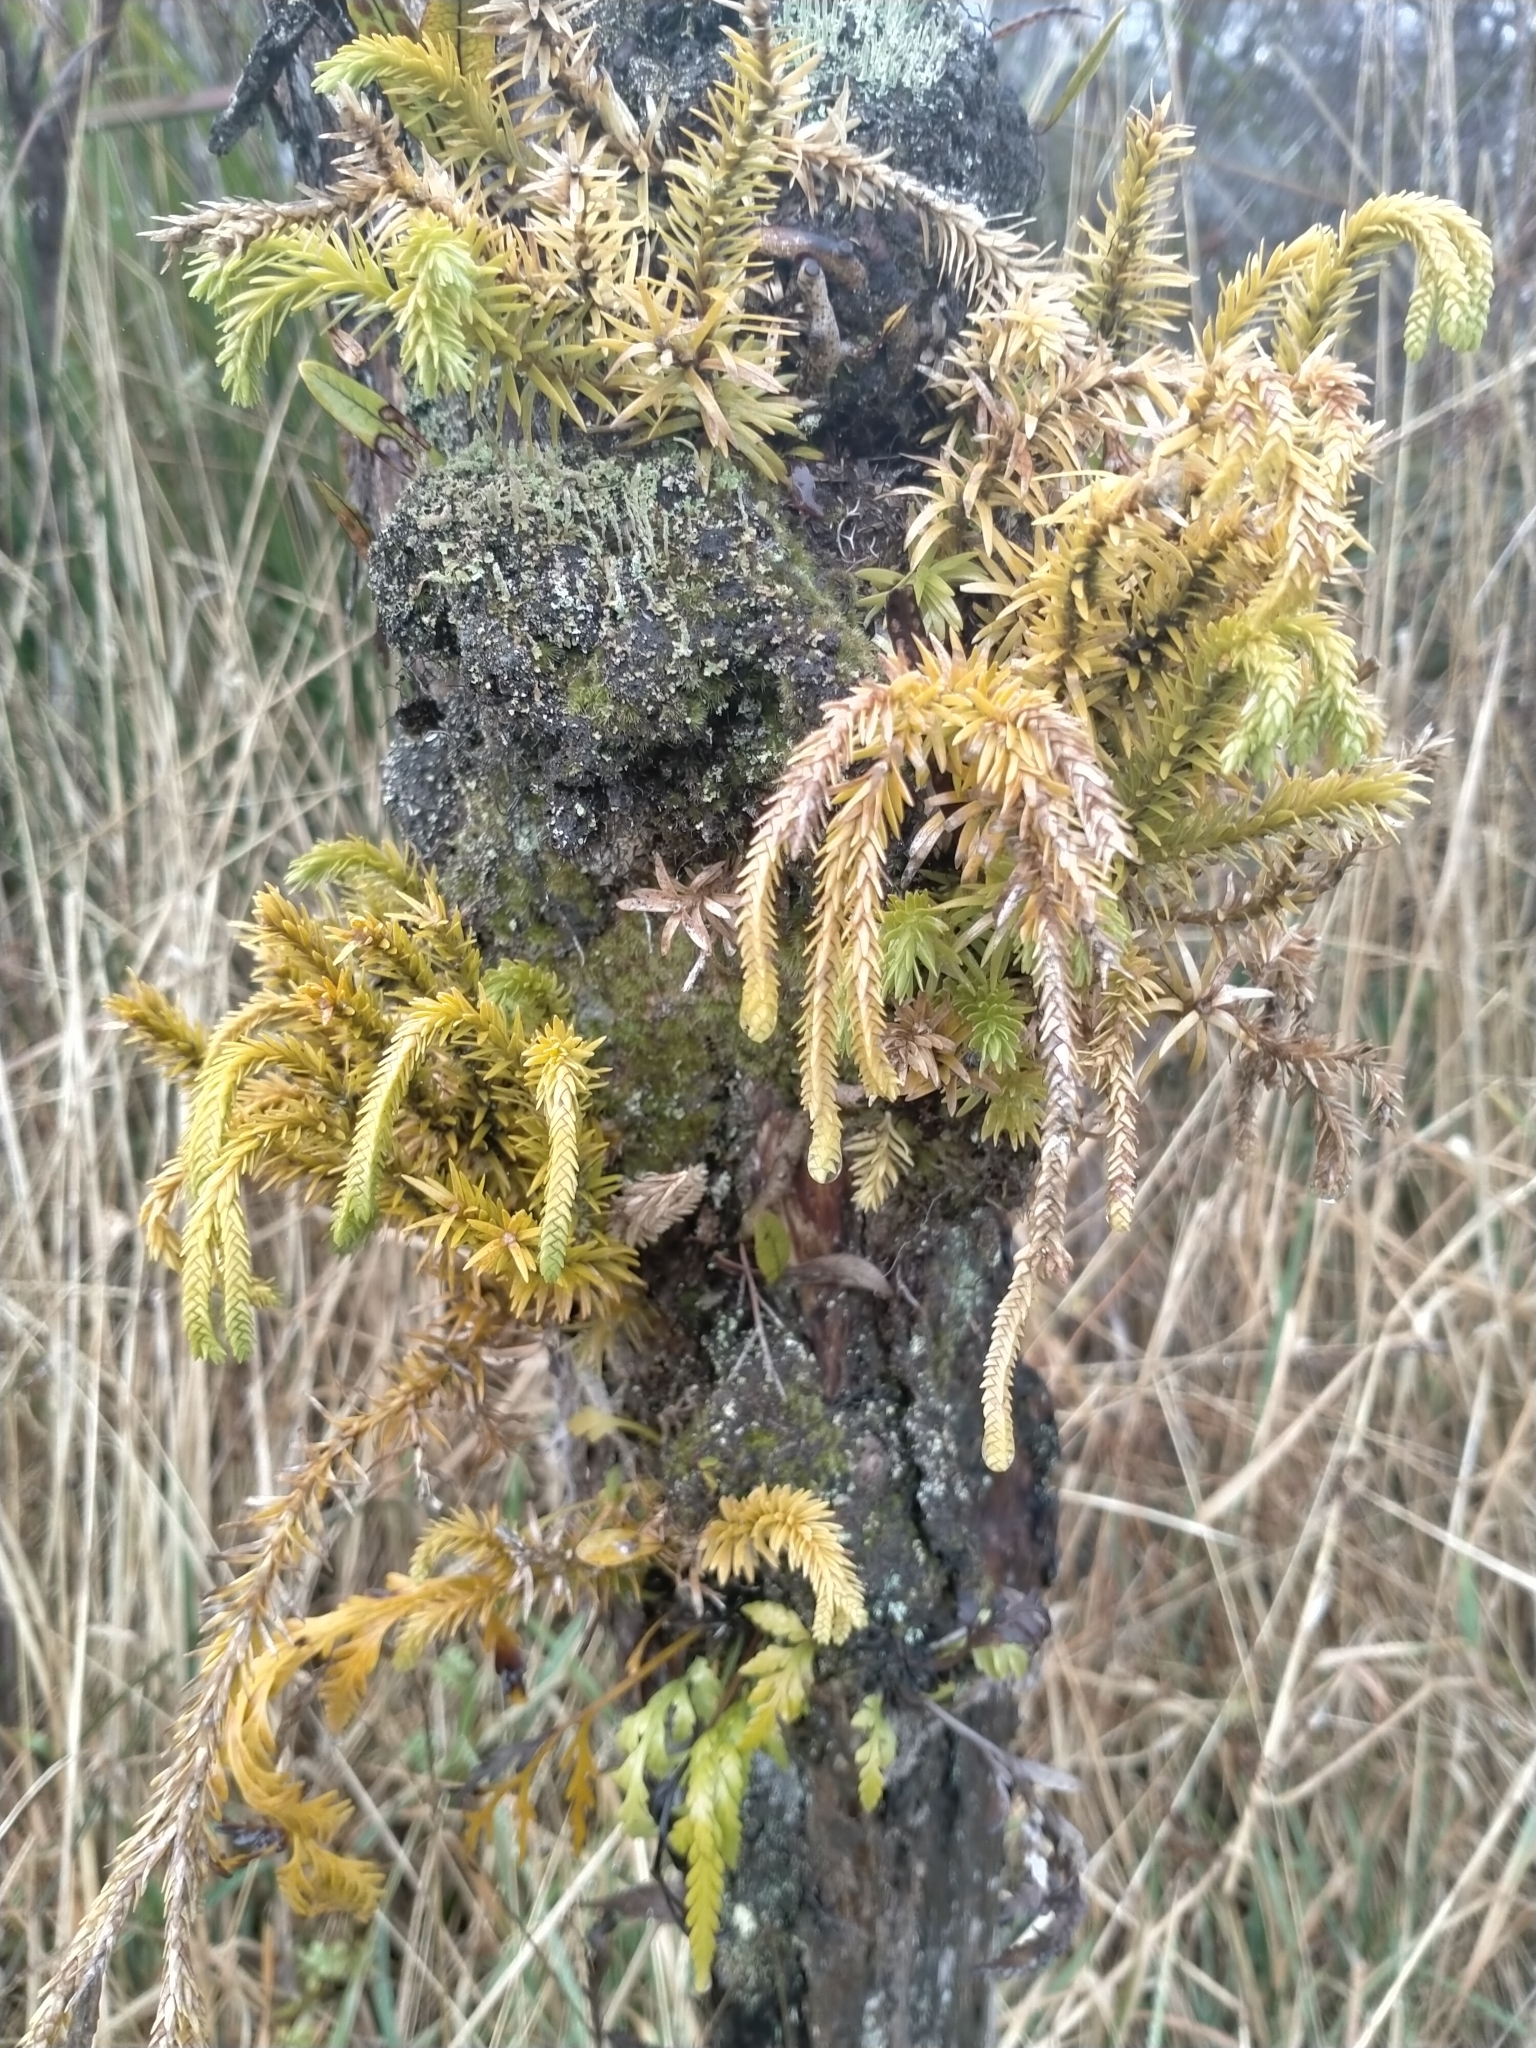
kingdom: Plantae
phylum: Tracheophyta
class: Lycopodiopsida
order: Lycopodiales
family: Lycopodiaceae
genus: Phlegmariurus
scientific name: Phlegmariurus varius
